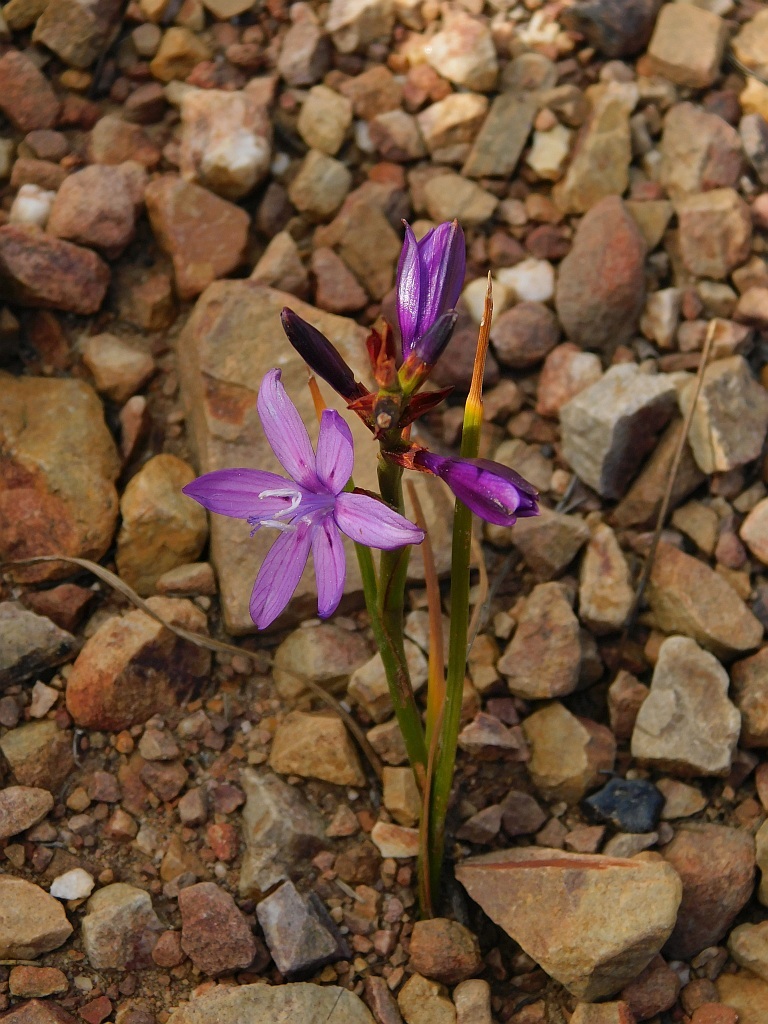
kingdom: Plantae
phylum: Tracheophyta
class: Liliopsida
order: Asparagales
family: Iridaceae
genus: Thereianthus
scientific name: Thereianthus bracteolatus
